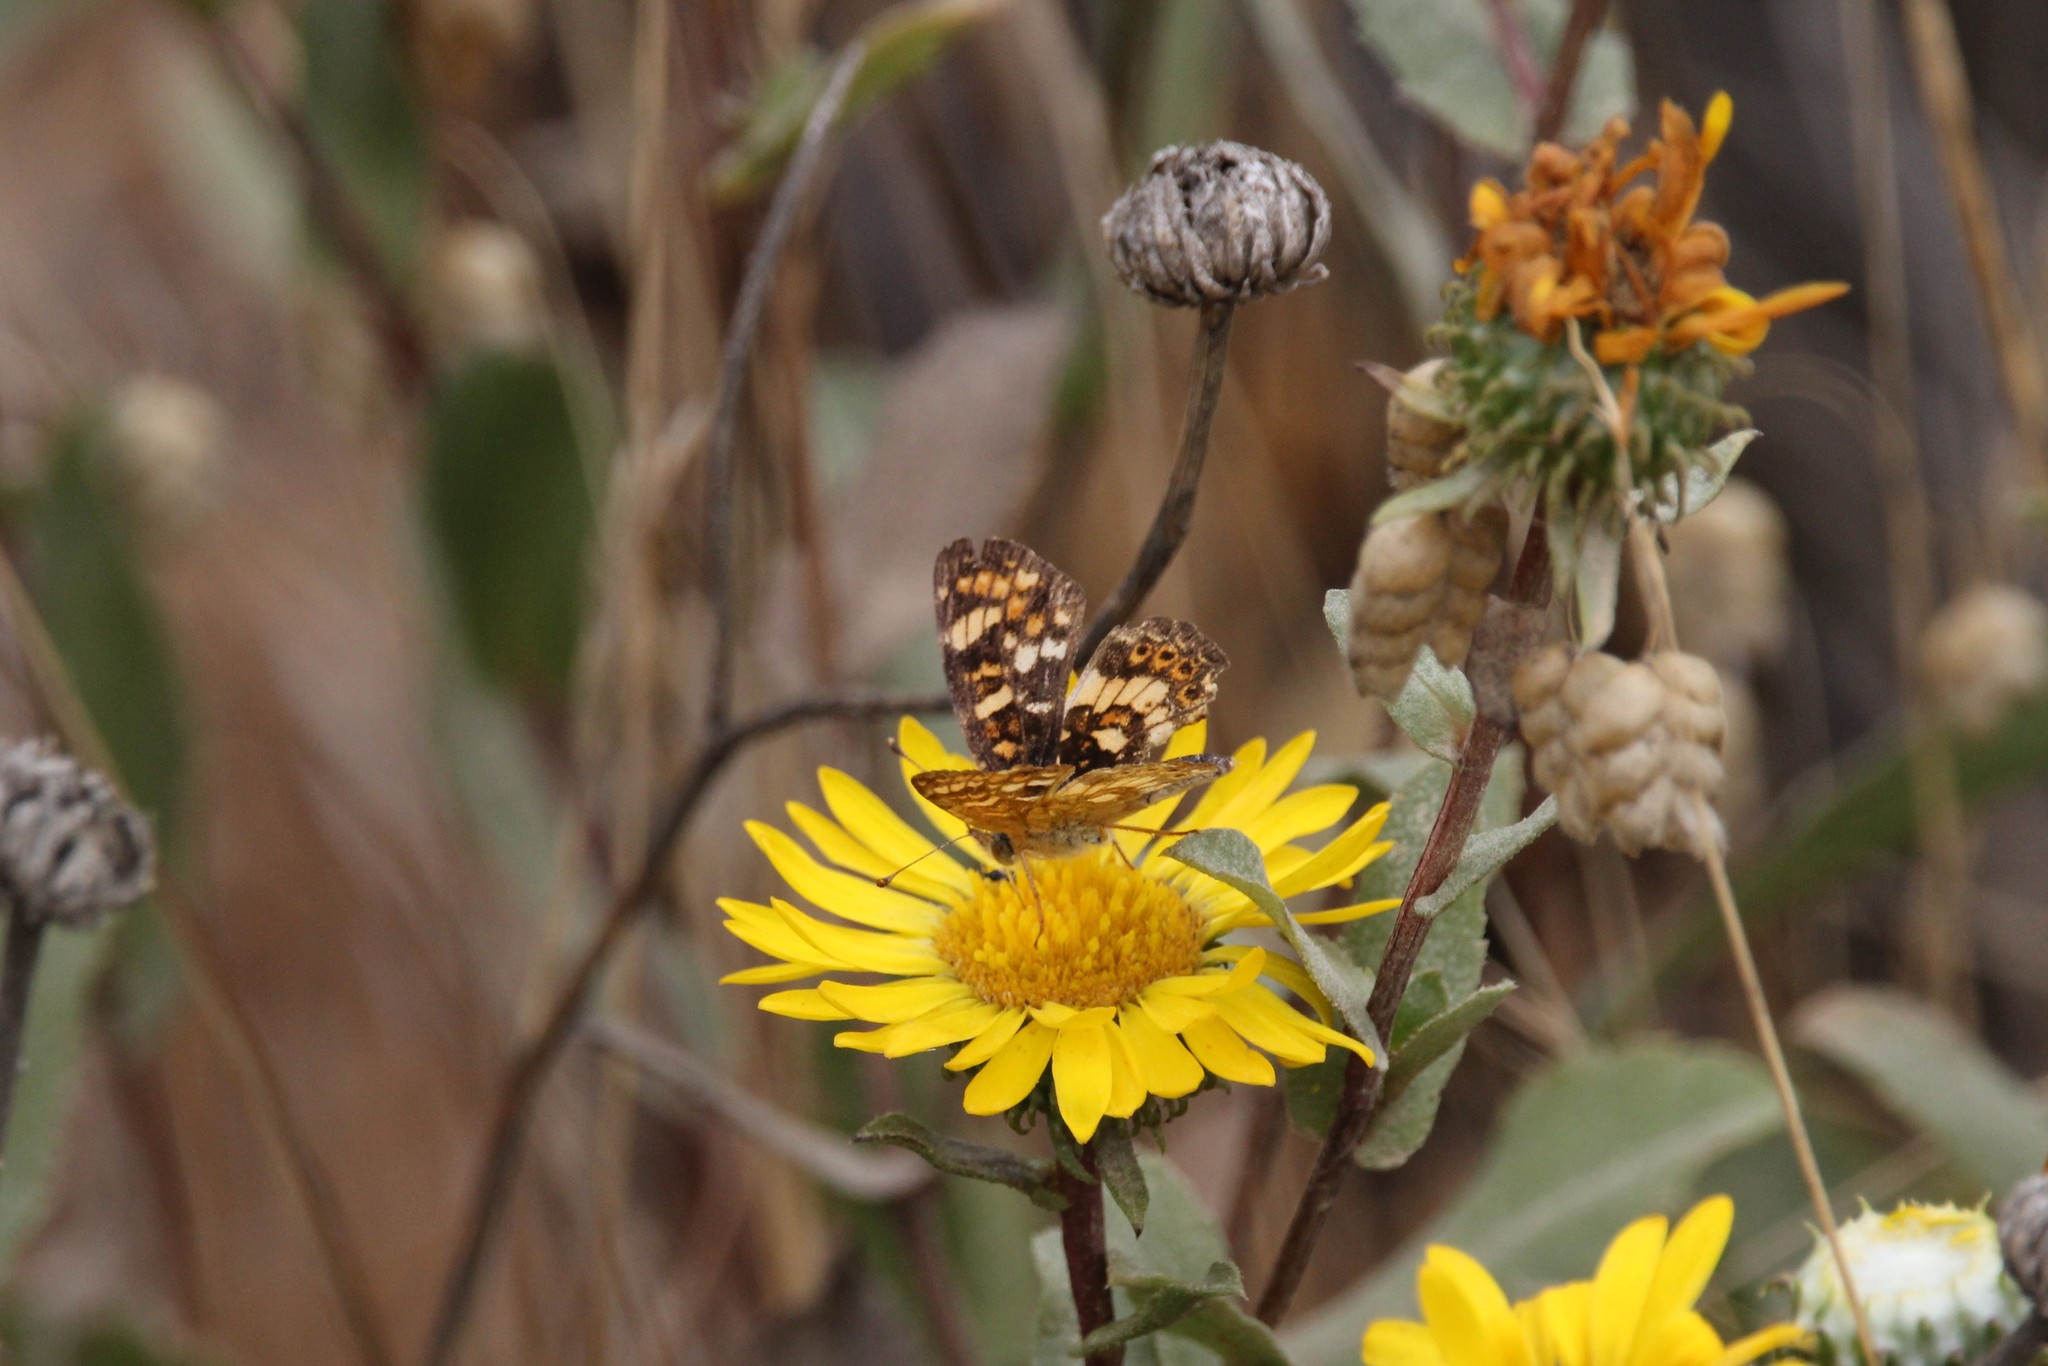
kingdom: Animalia
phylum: Arthropoda
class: Insecta
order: Lepidoptera
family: Nymphalidae
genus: Phyciodes
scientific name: Phyciodes tharos
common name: Pearl crescent
